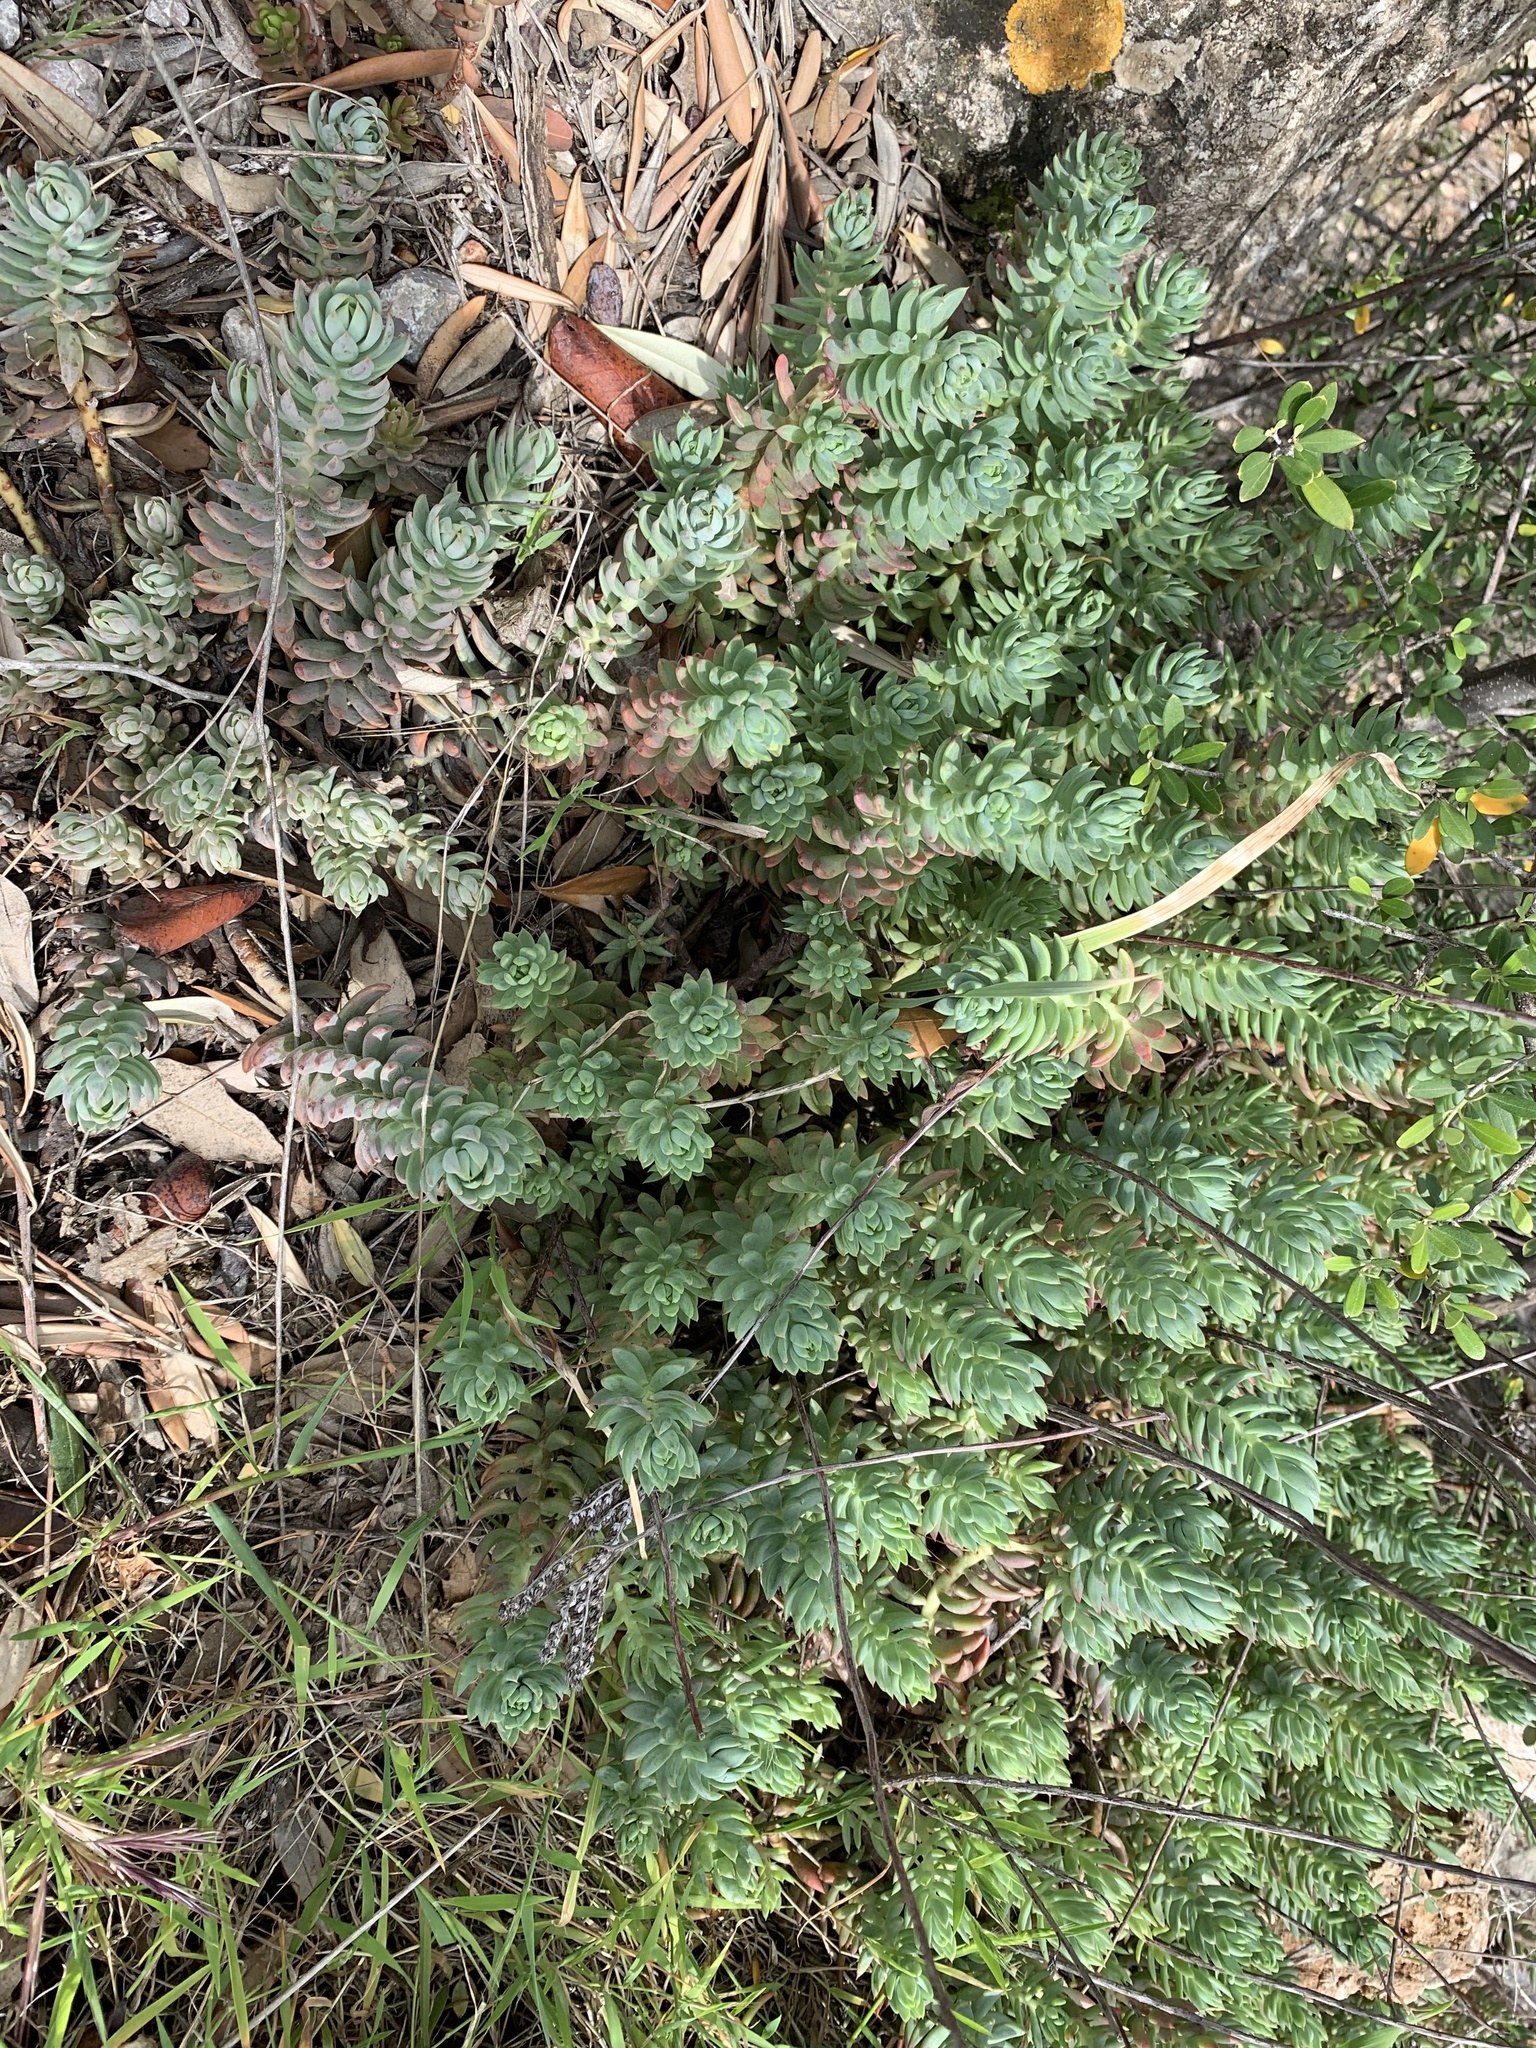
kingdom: Plantae
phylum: Tracheophyta
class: Magnoliopsida
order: Saxifragales
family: Crassulaceae
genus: Petrosedum
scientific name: Petrosedum sediforme
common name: Pale stonecrop
